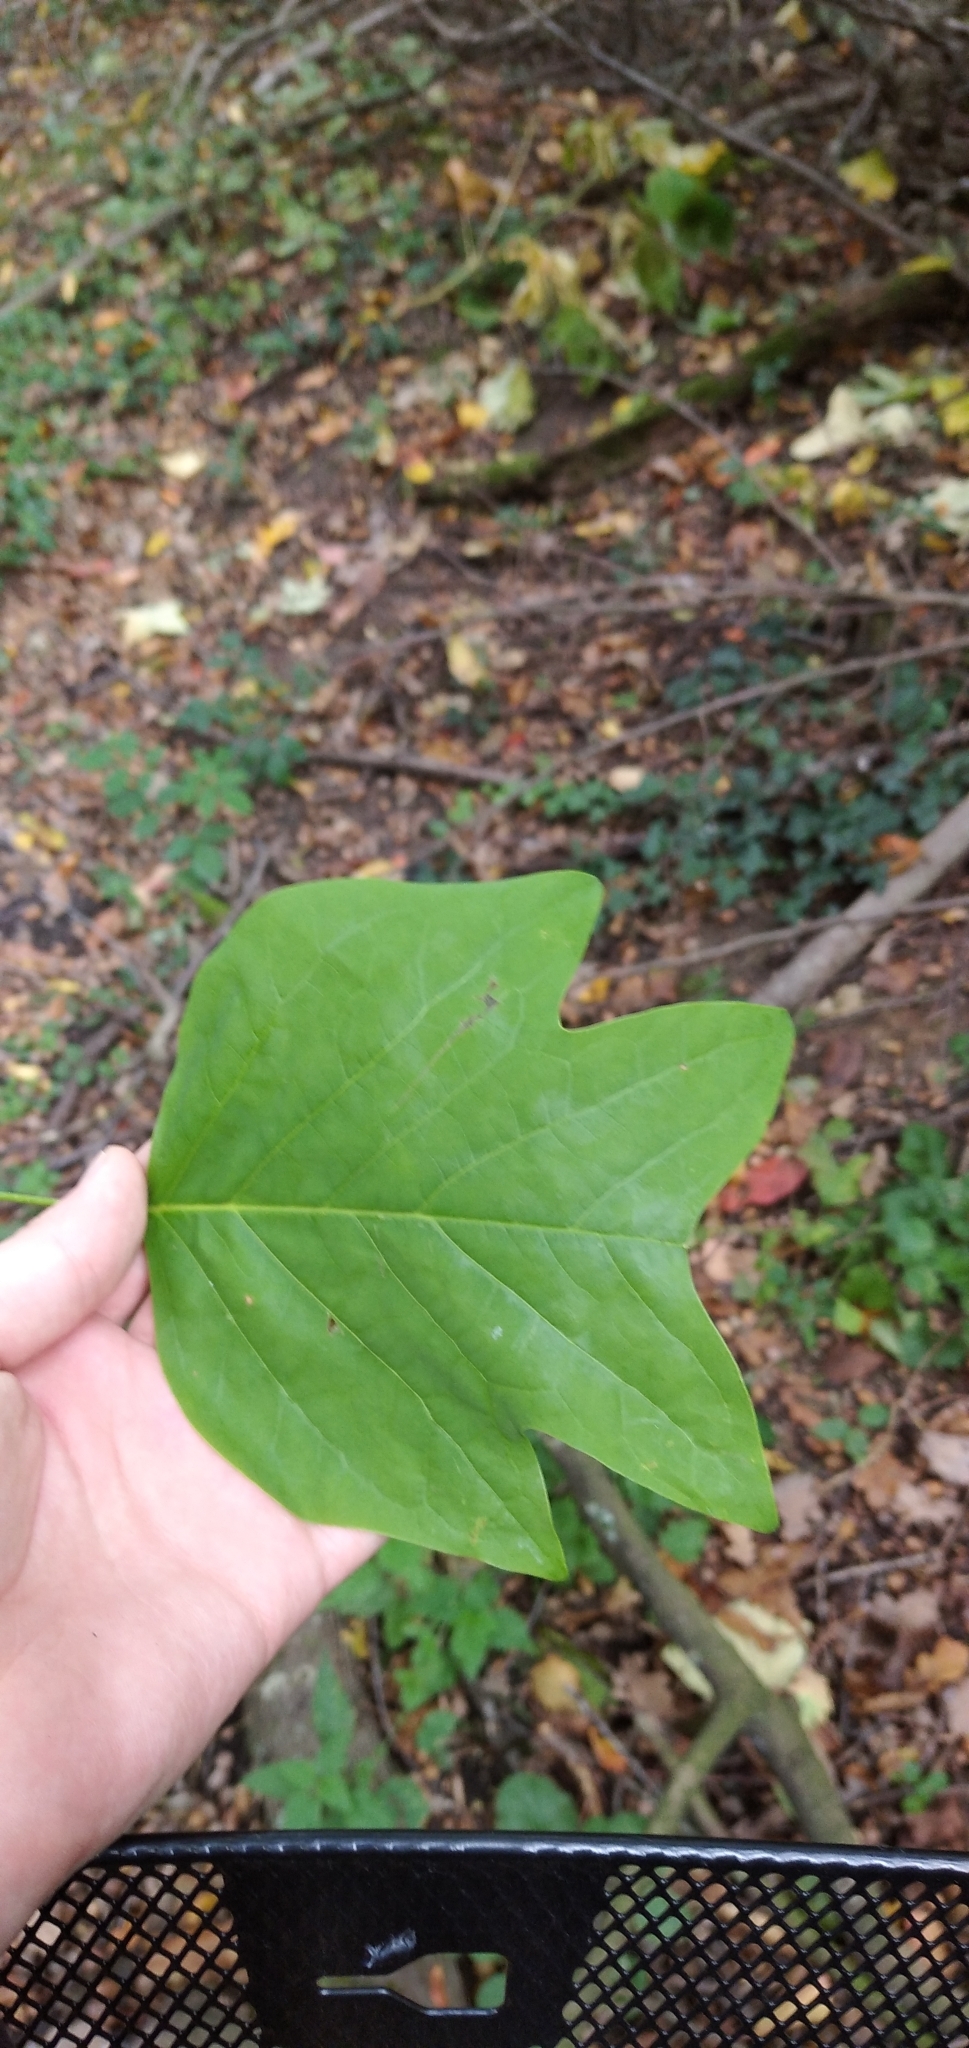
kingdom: Plantae
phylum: Tracheophyta
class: Magnoliopsida
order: Magnoliales
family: Magnoliaceae
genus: Liriodendron
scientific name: Liriodendron tulipifera
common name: Tulip tree
